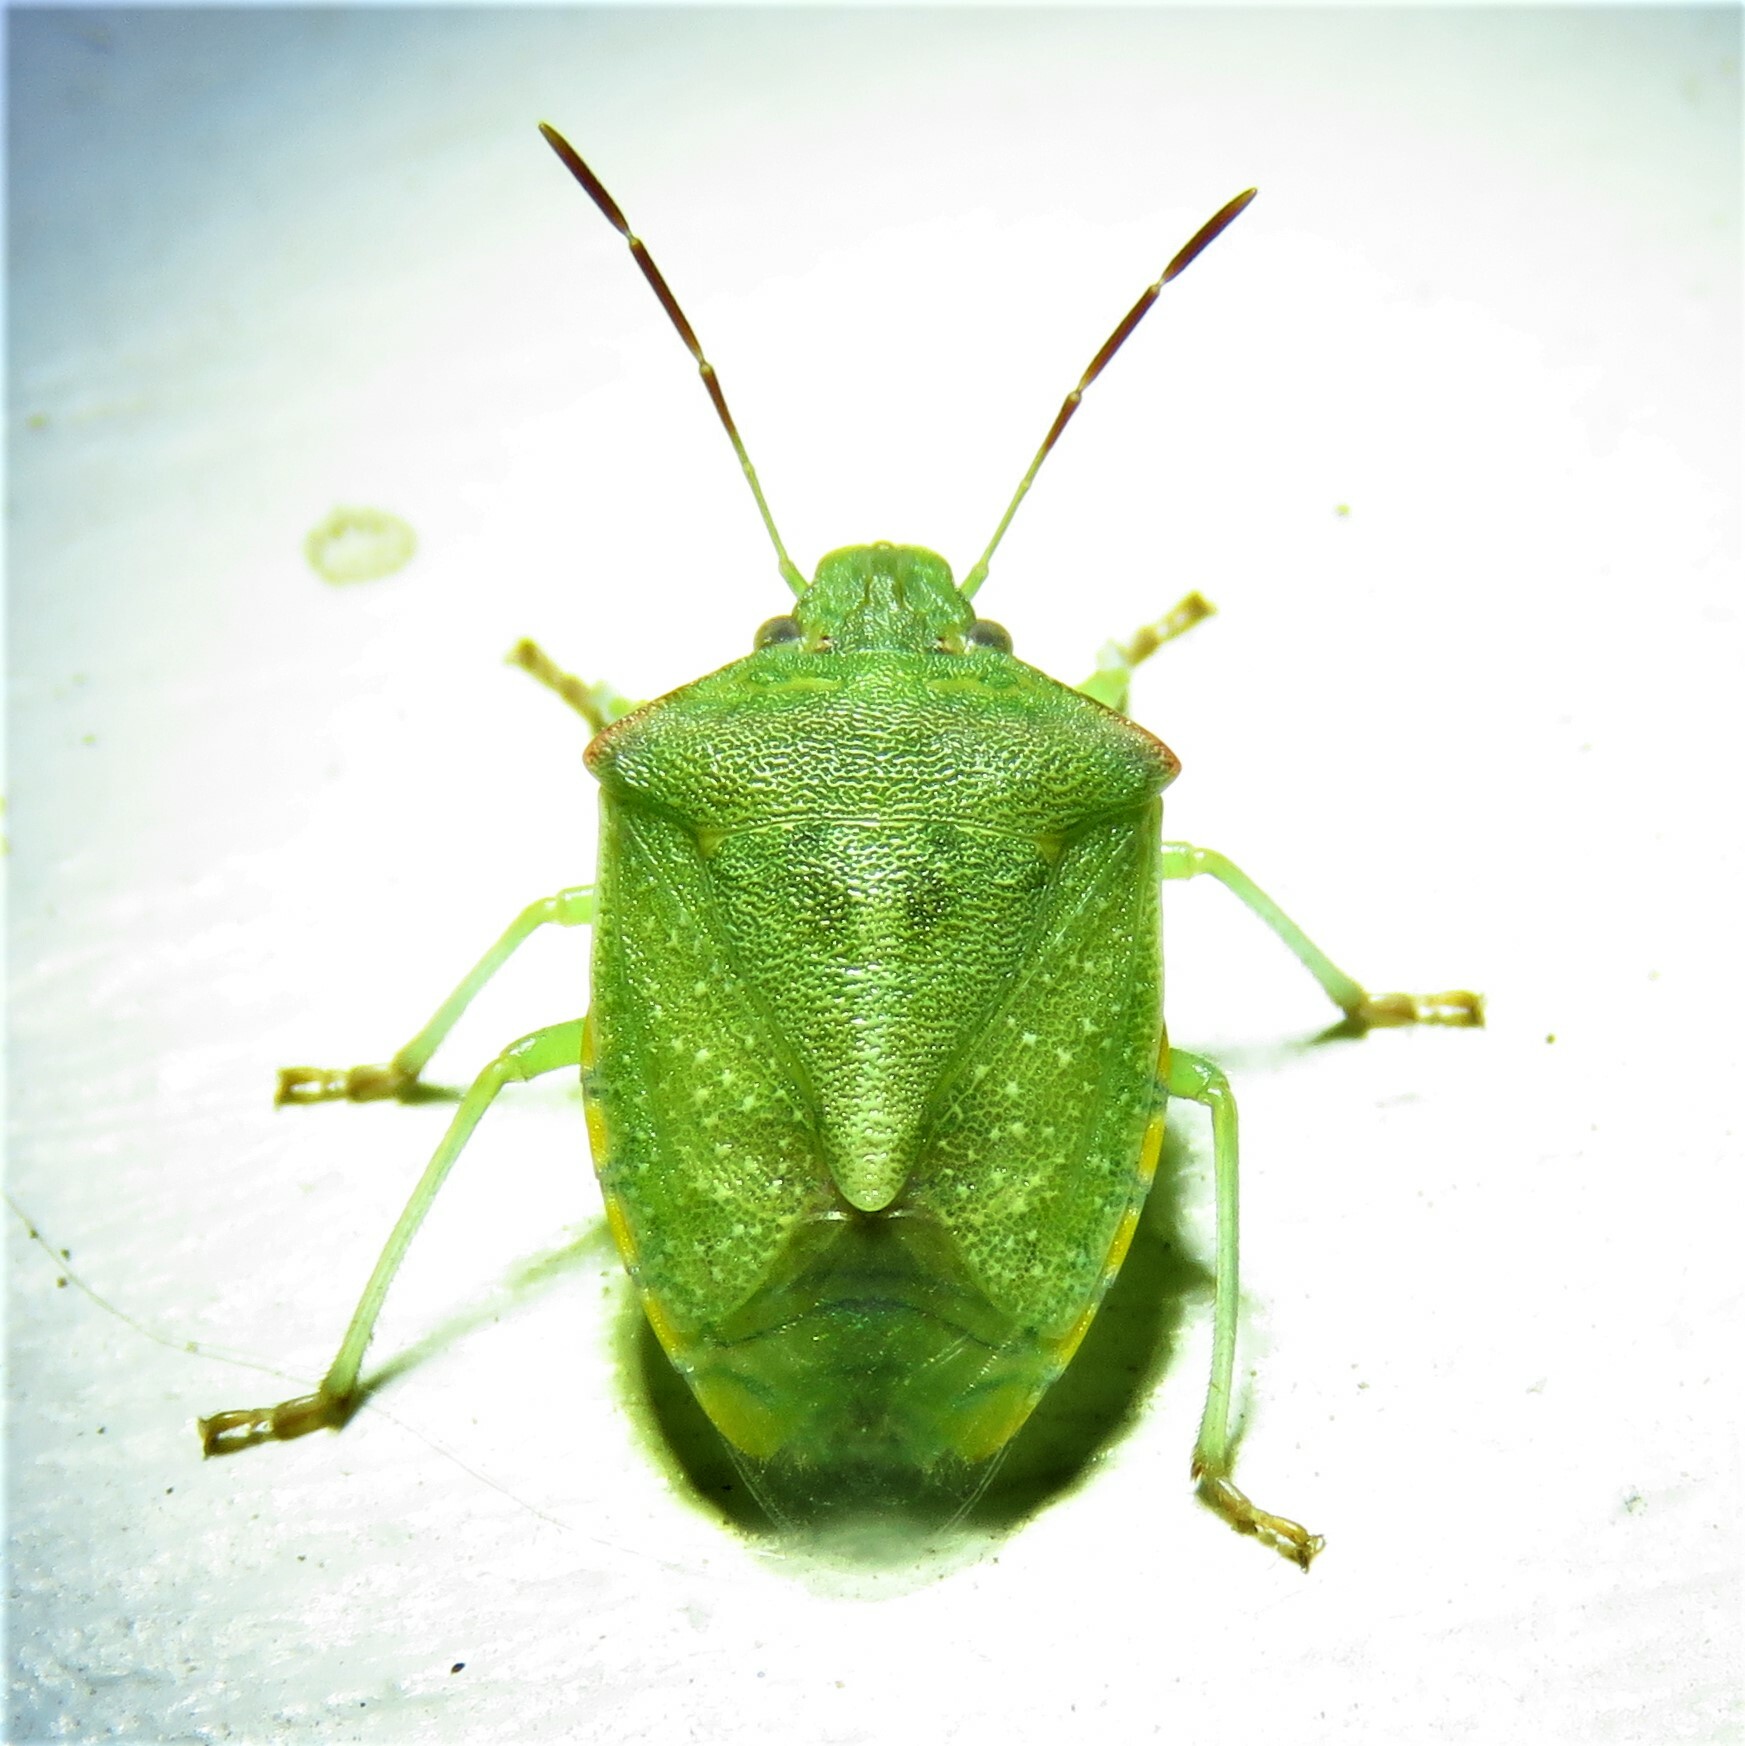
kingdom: Animalia
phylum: Arthropoda
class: Insecta
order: Hemiptera
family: Pentatomidae
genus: Thyanta
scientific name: Thyanta custator
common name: Stink bug
